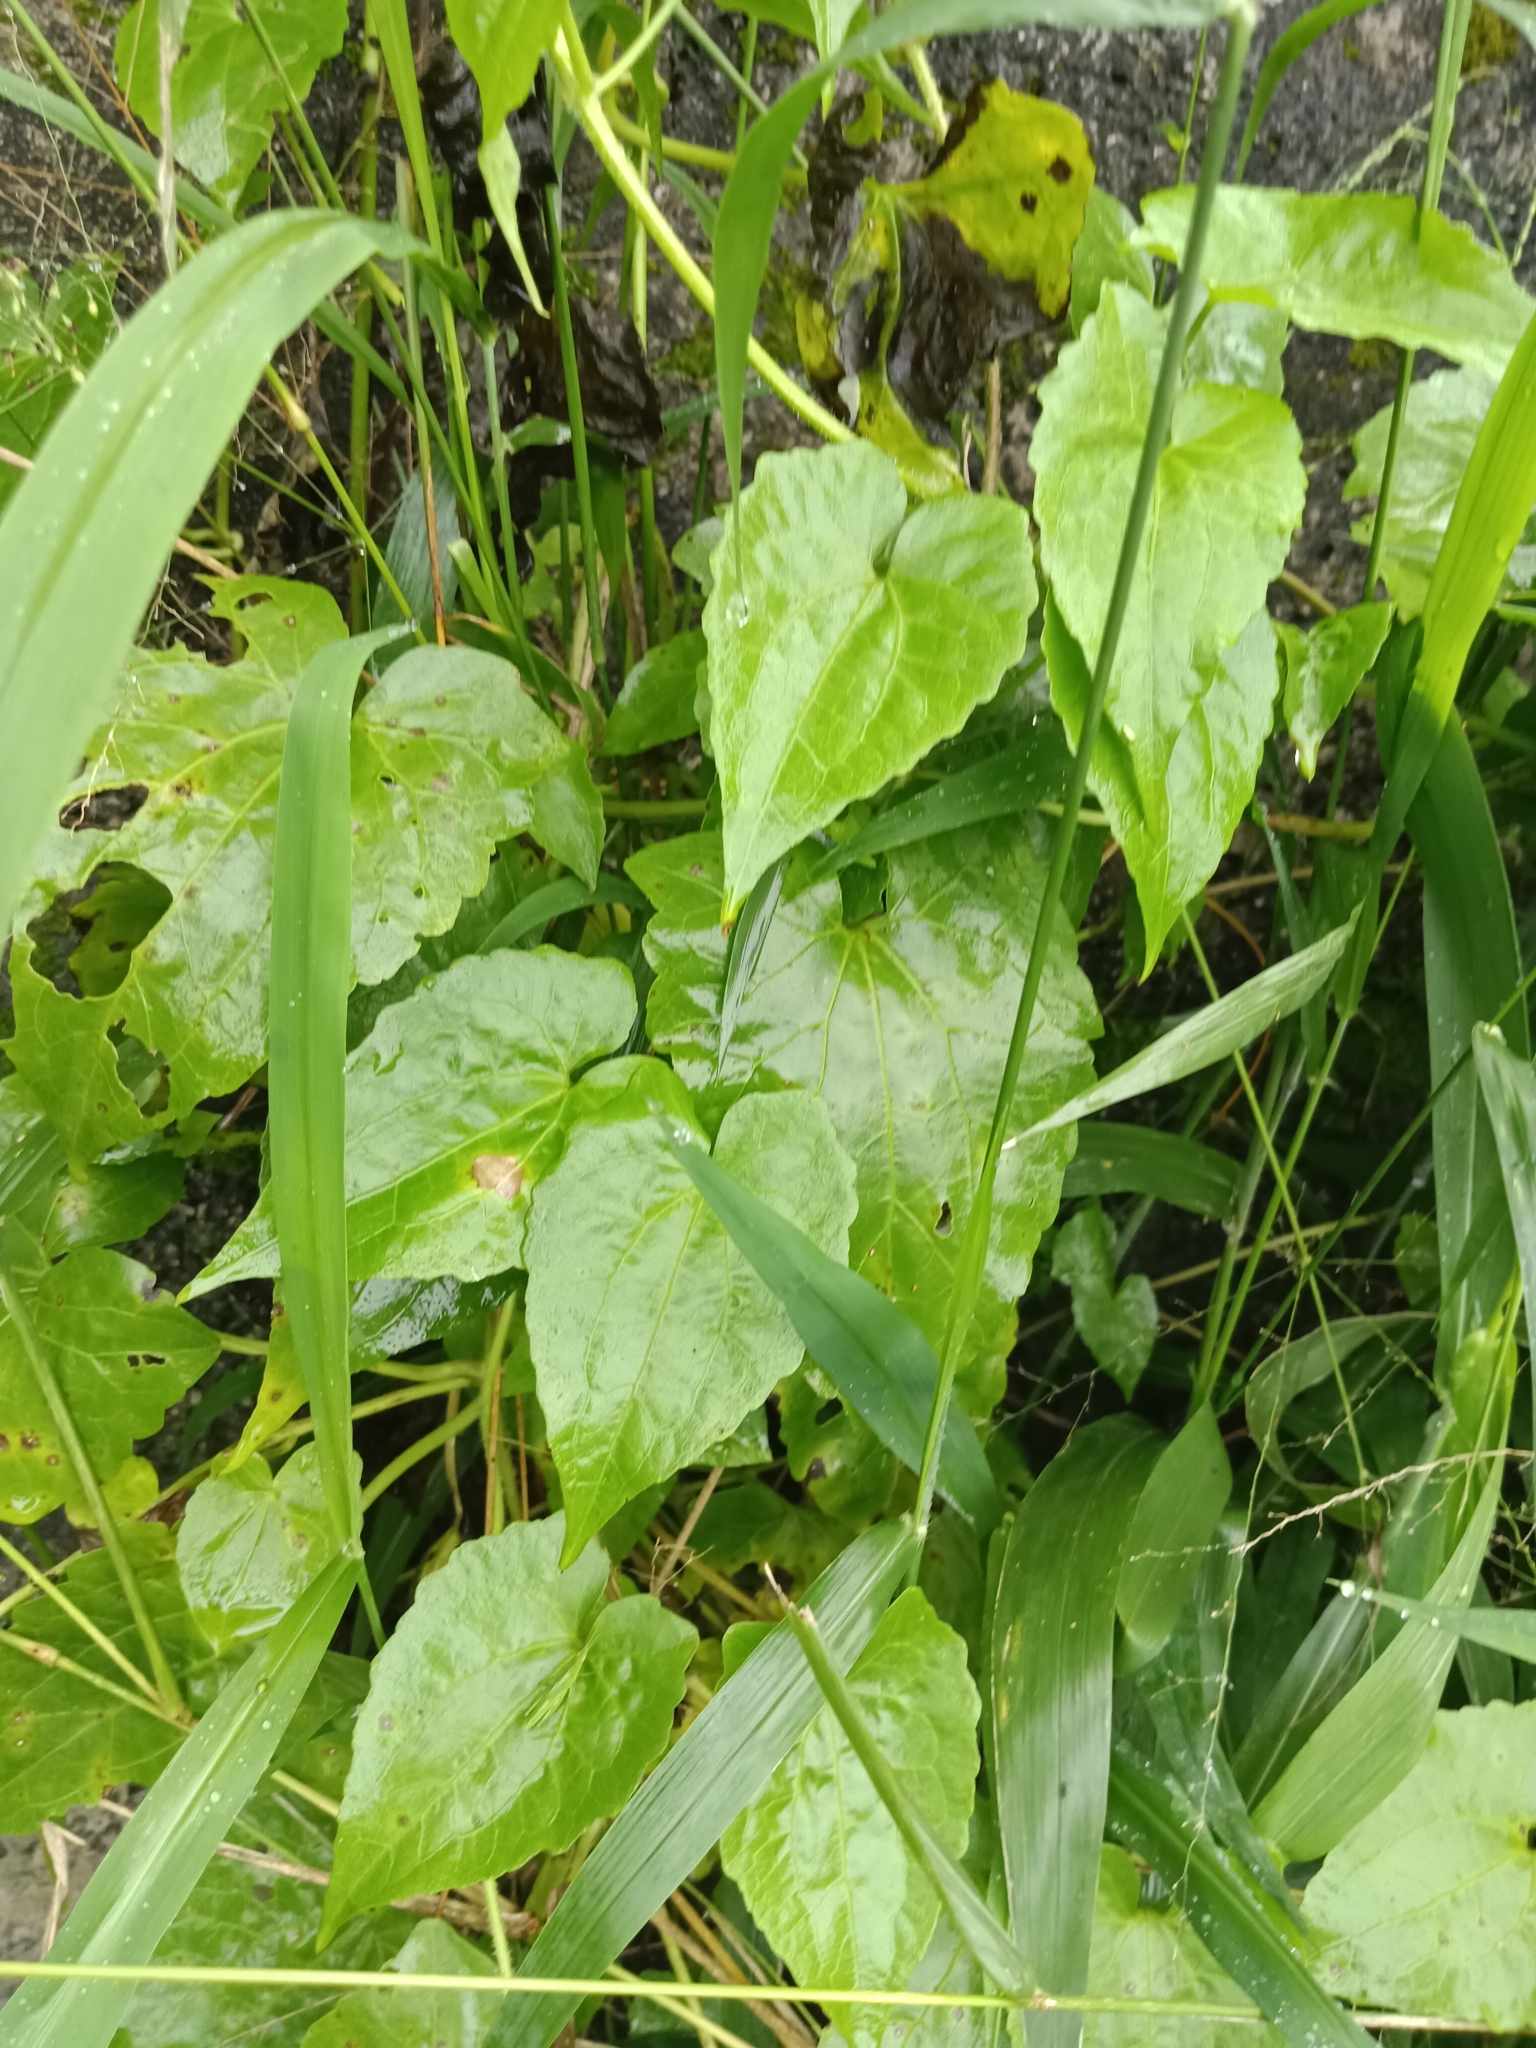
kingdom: Plantae
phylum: Tracheophyta
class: Magnoliopsida
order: Asterales
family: Asteraceae
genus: Mikania
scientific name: Mikania micrantha
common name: Mile-a-minute
